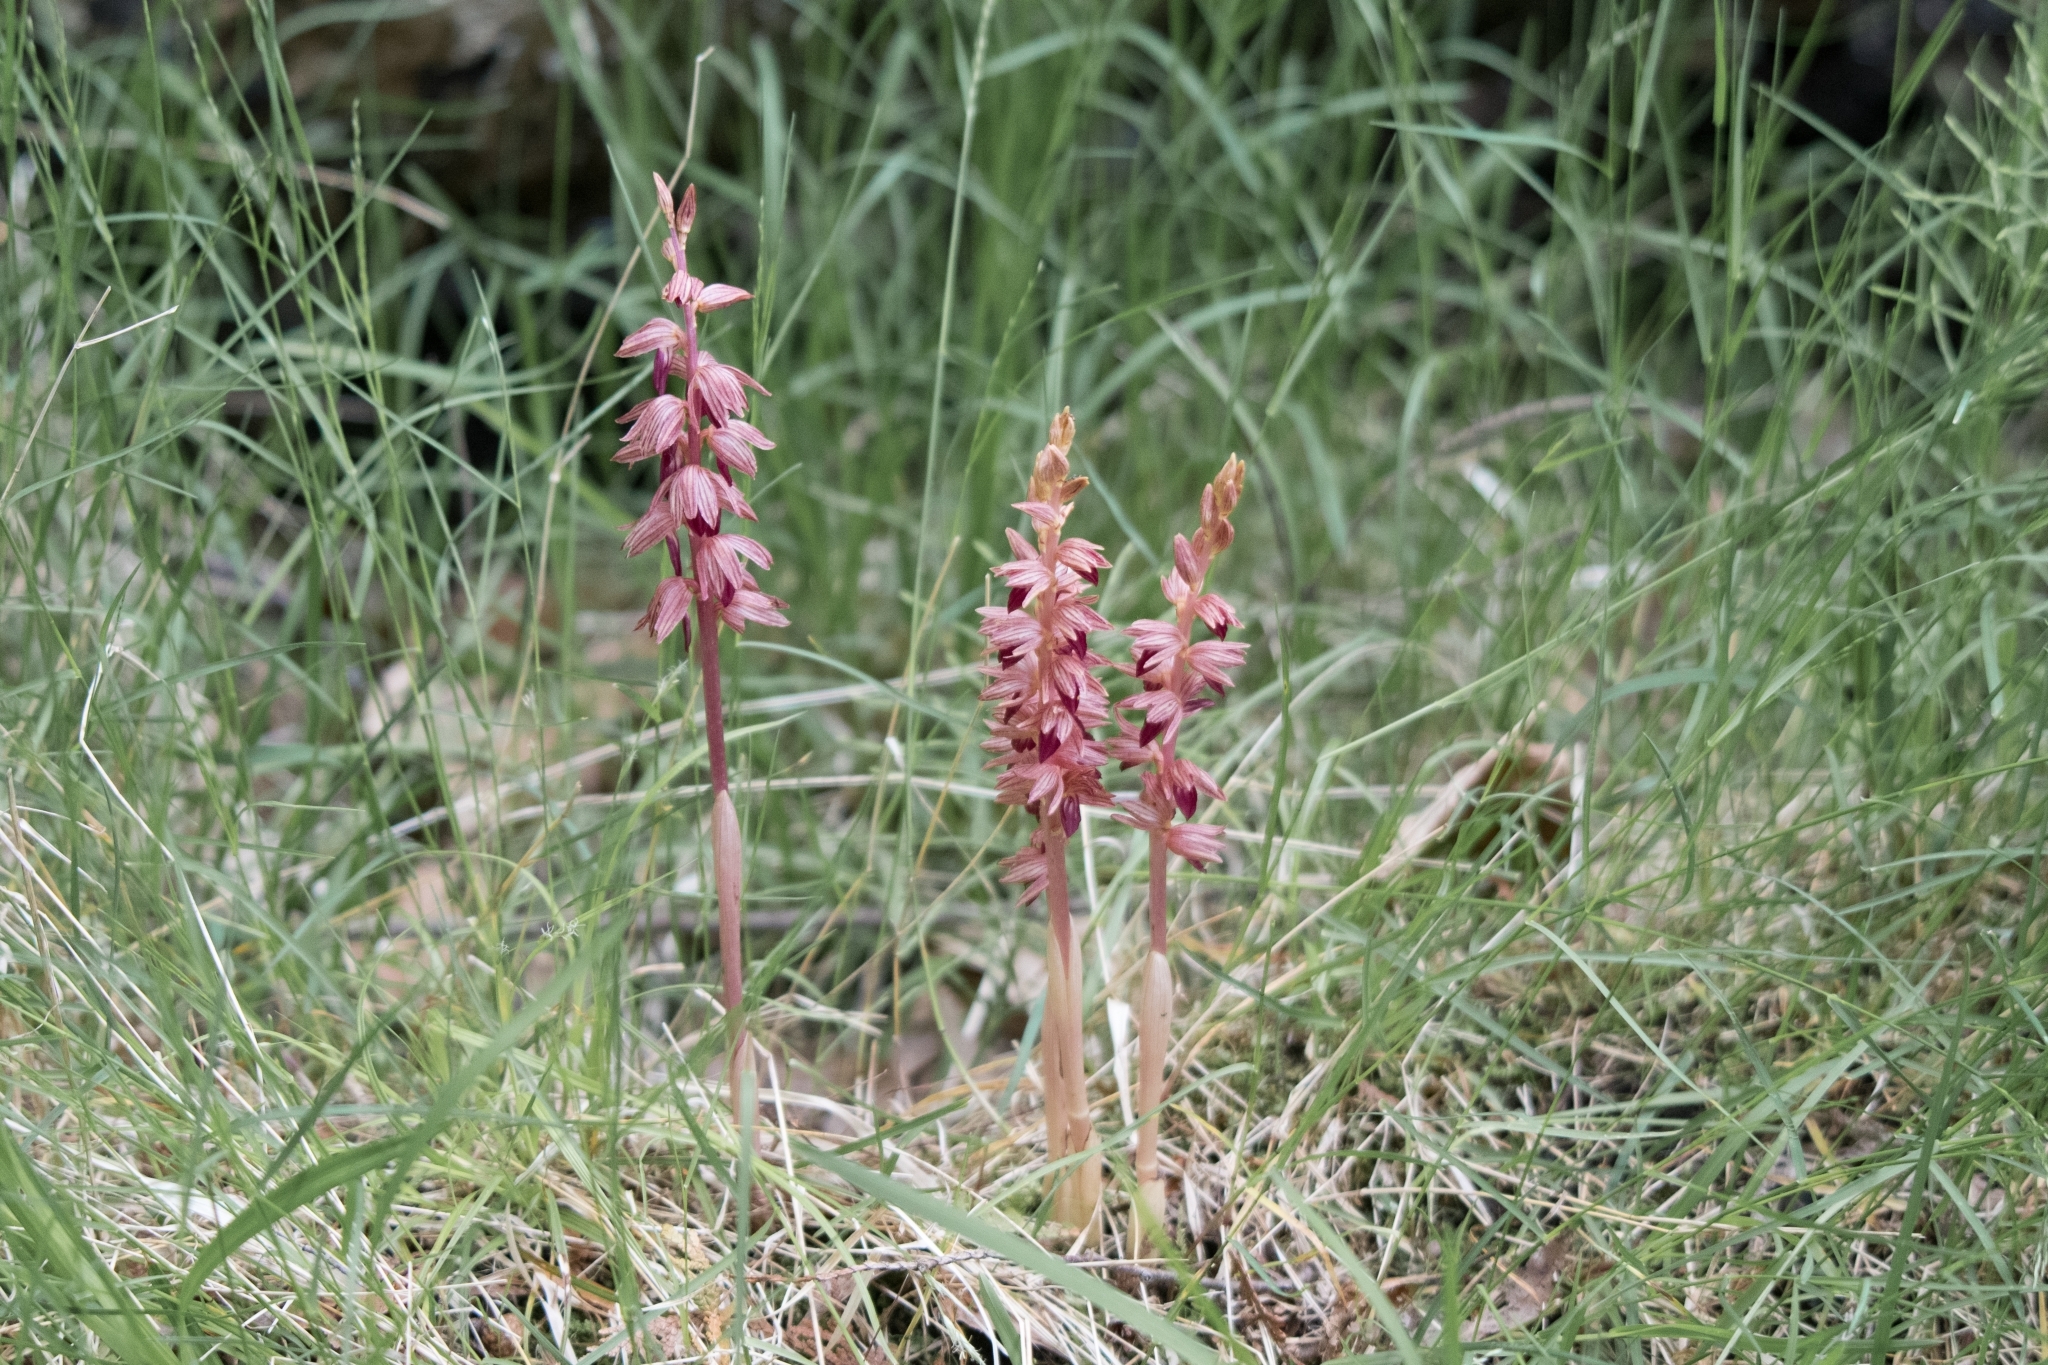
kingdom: Plantae
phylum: Tracheophyta
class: Liliopsida
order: Asparagales
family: Orchidaceae
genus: Corallorhiza
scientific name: Corallorhiza striata
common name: Hooded coralroot
